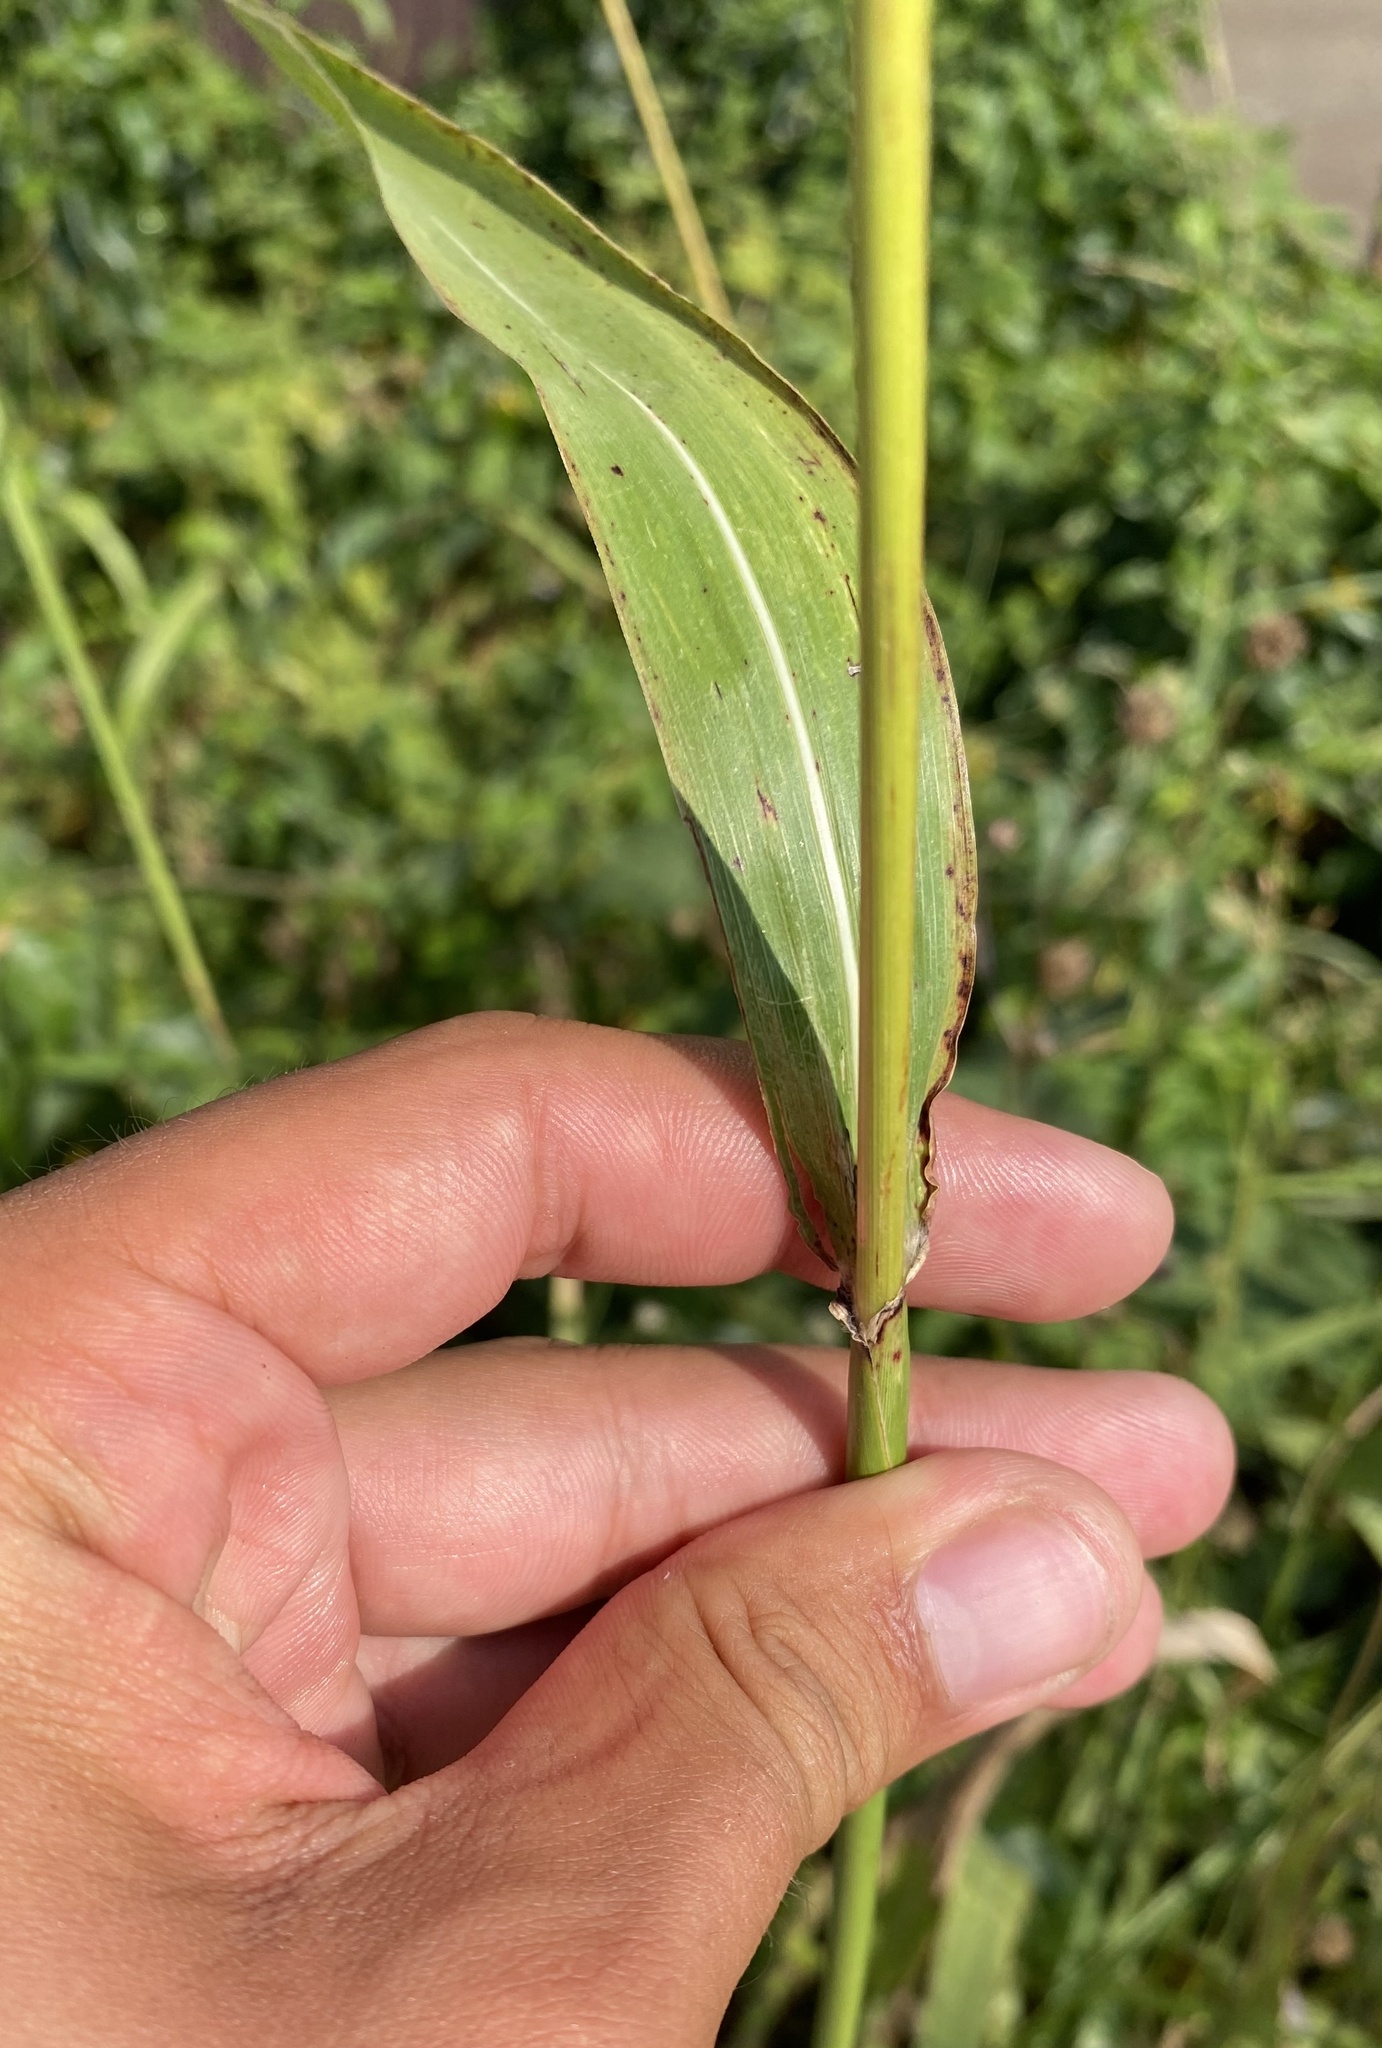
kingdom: Plantae
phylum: Tracheophyta
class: Liliopsida
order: Poales
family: Poaceae
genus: Sorghum
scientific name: Sorghum halepense
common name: Johnson-grass
